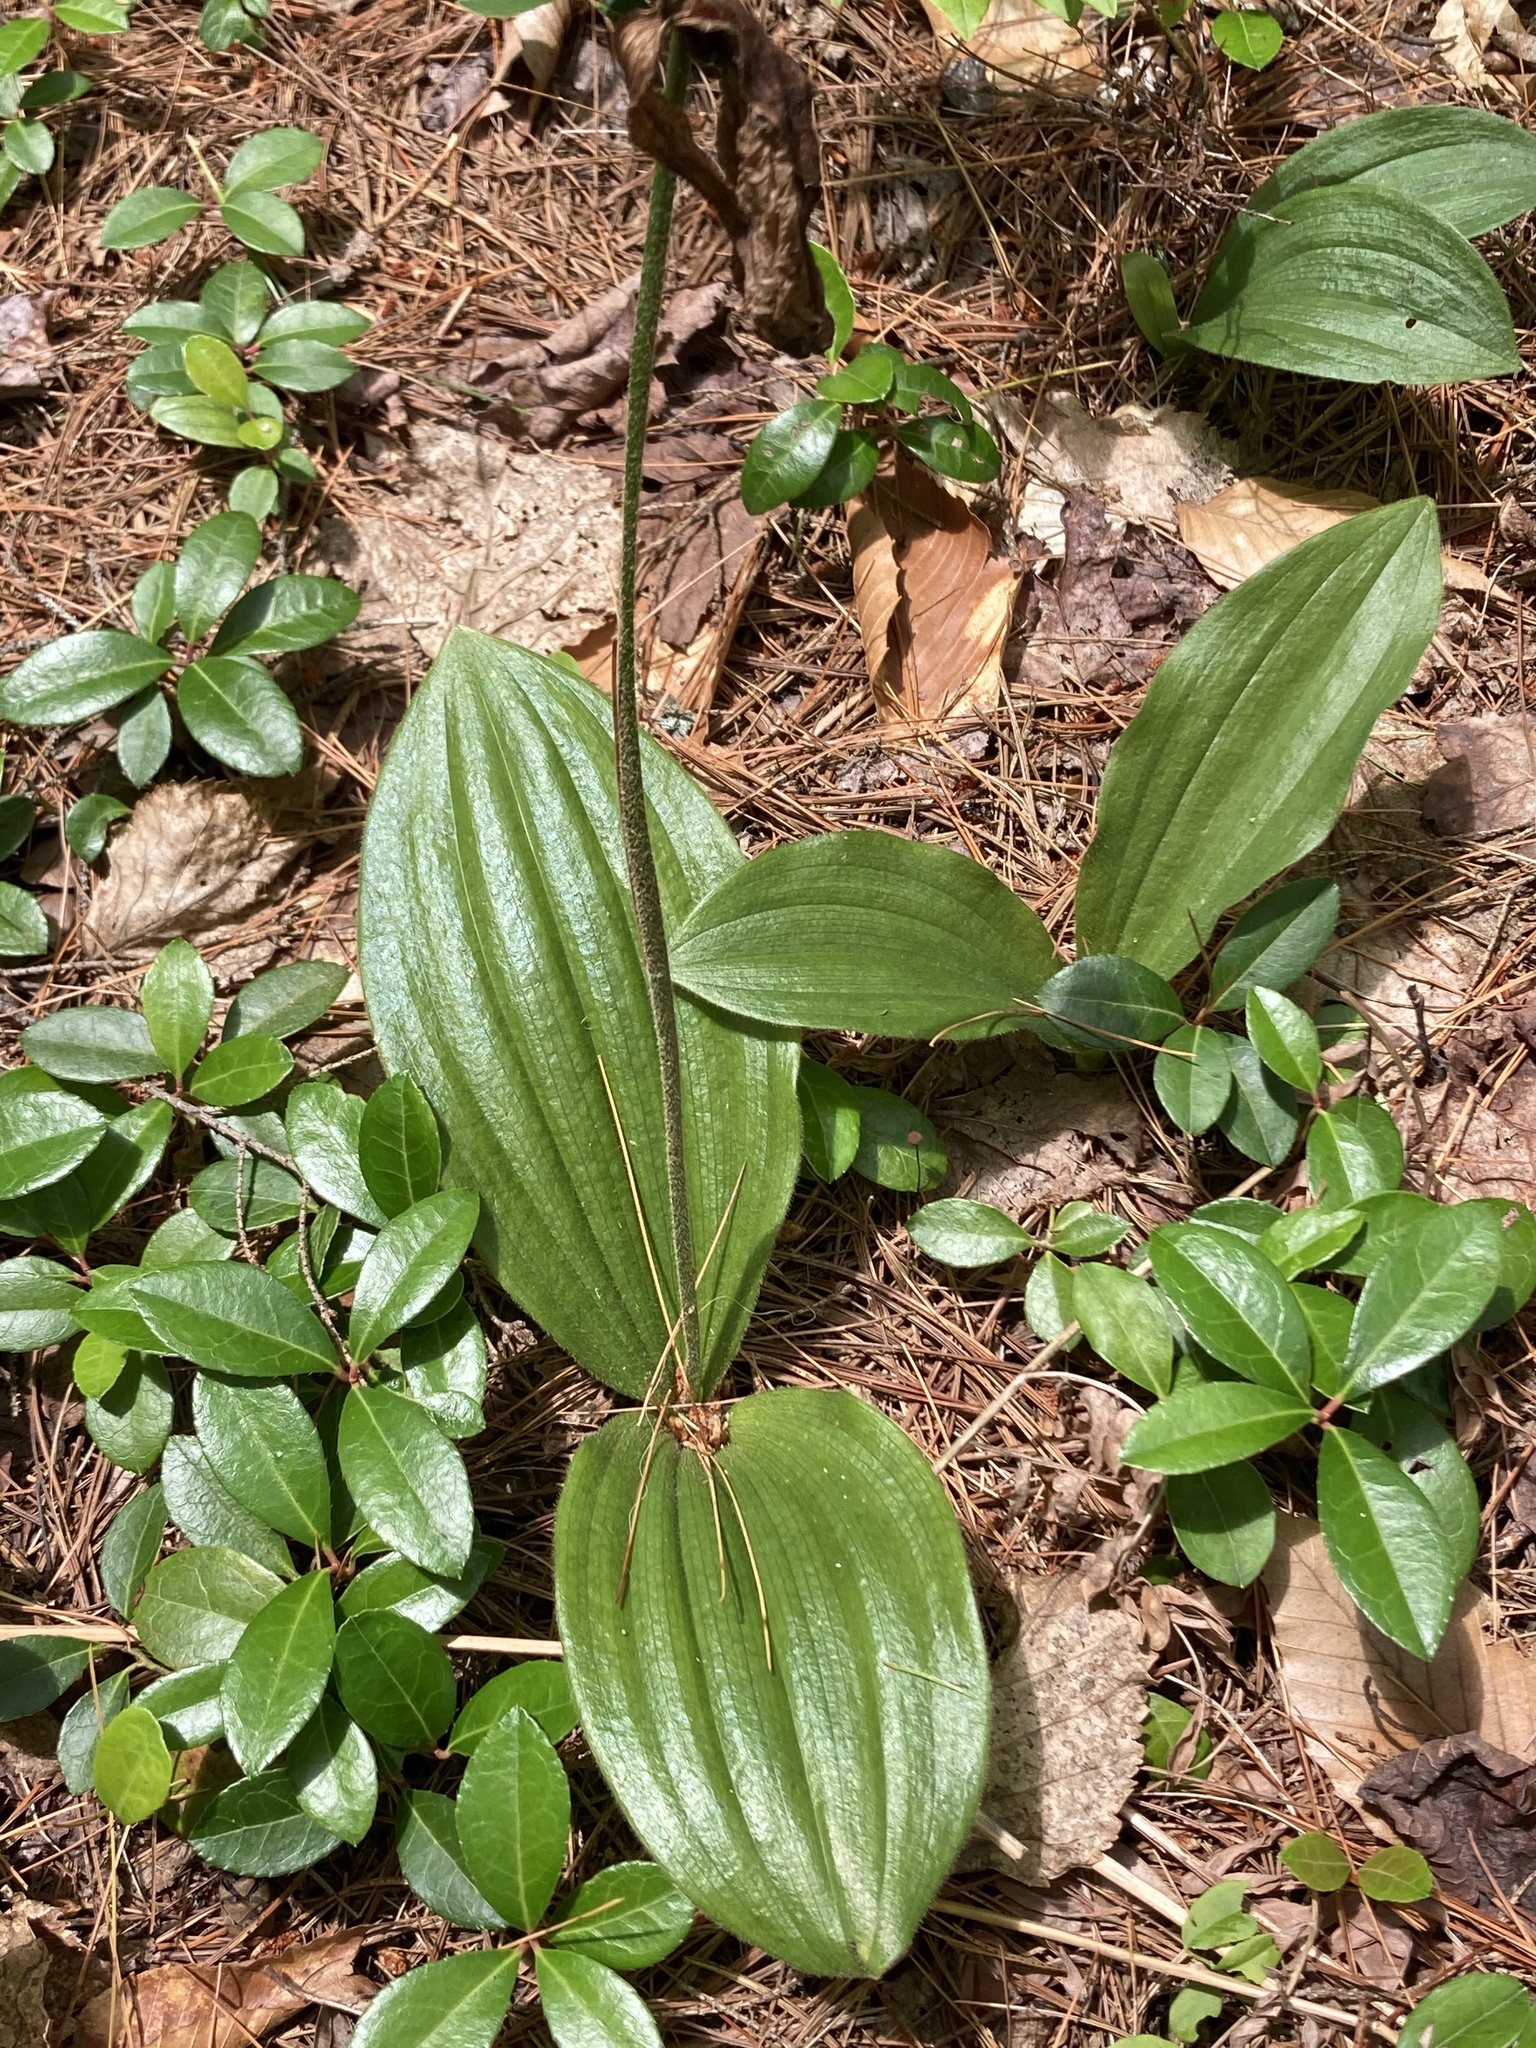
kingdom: Plantae
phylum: Tracheophyta
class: Liliopsida
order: Asparagales
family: Orchidaceae
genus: Cypripedium
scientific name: Cypripedium acaule
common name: Pink lady's-slipper
